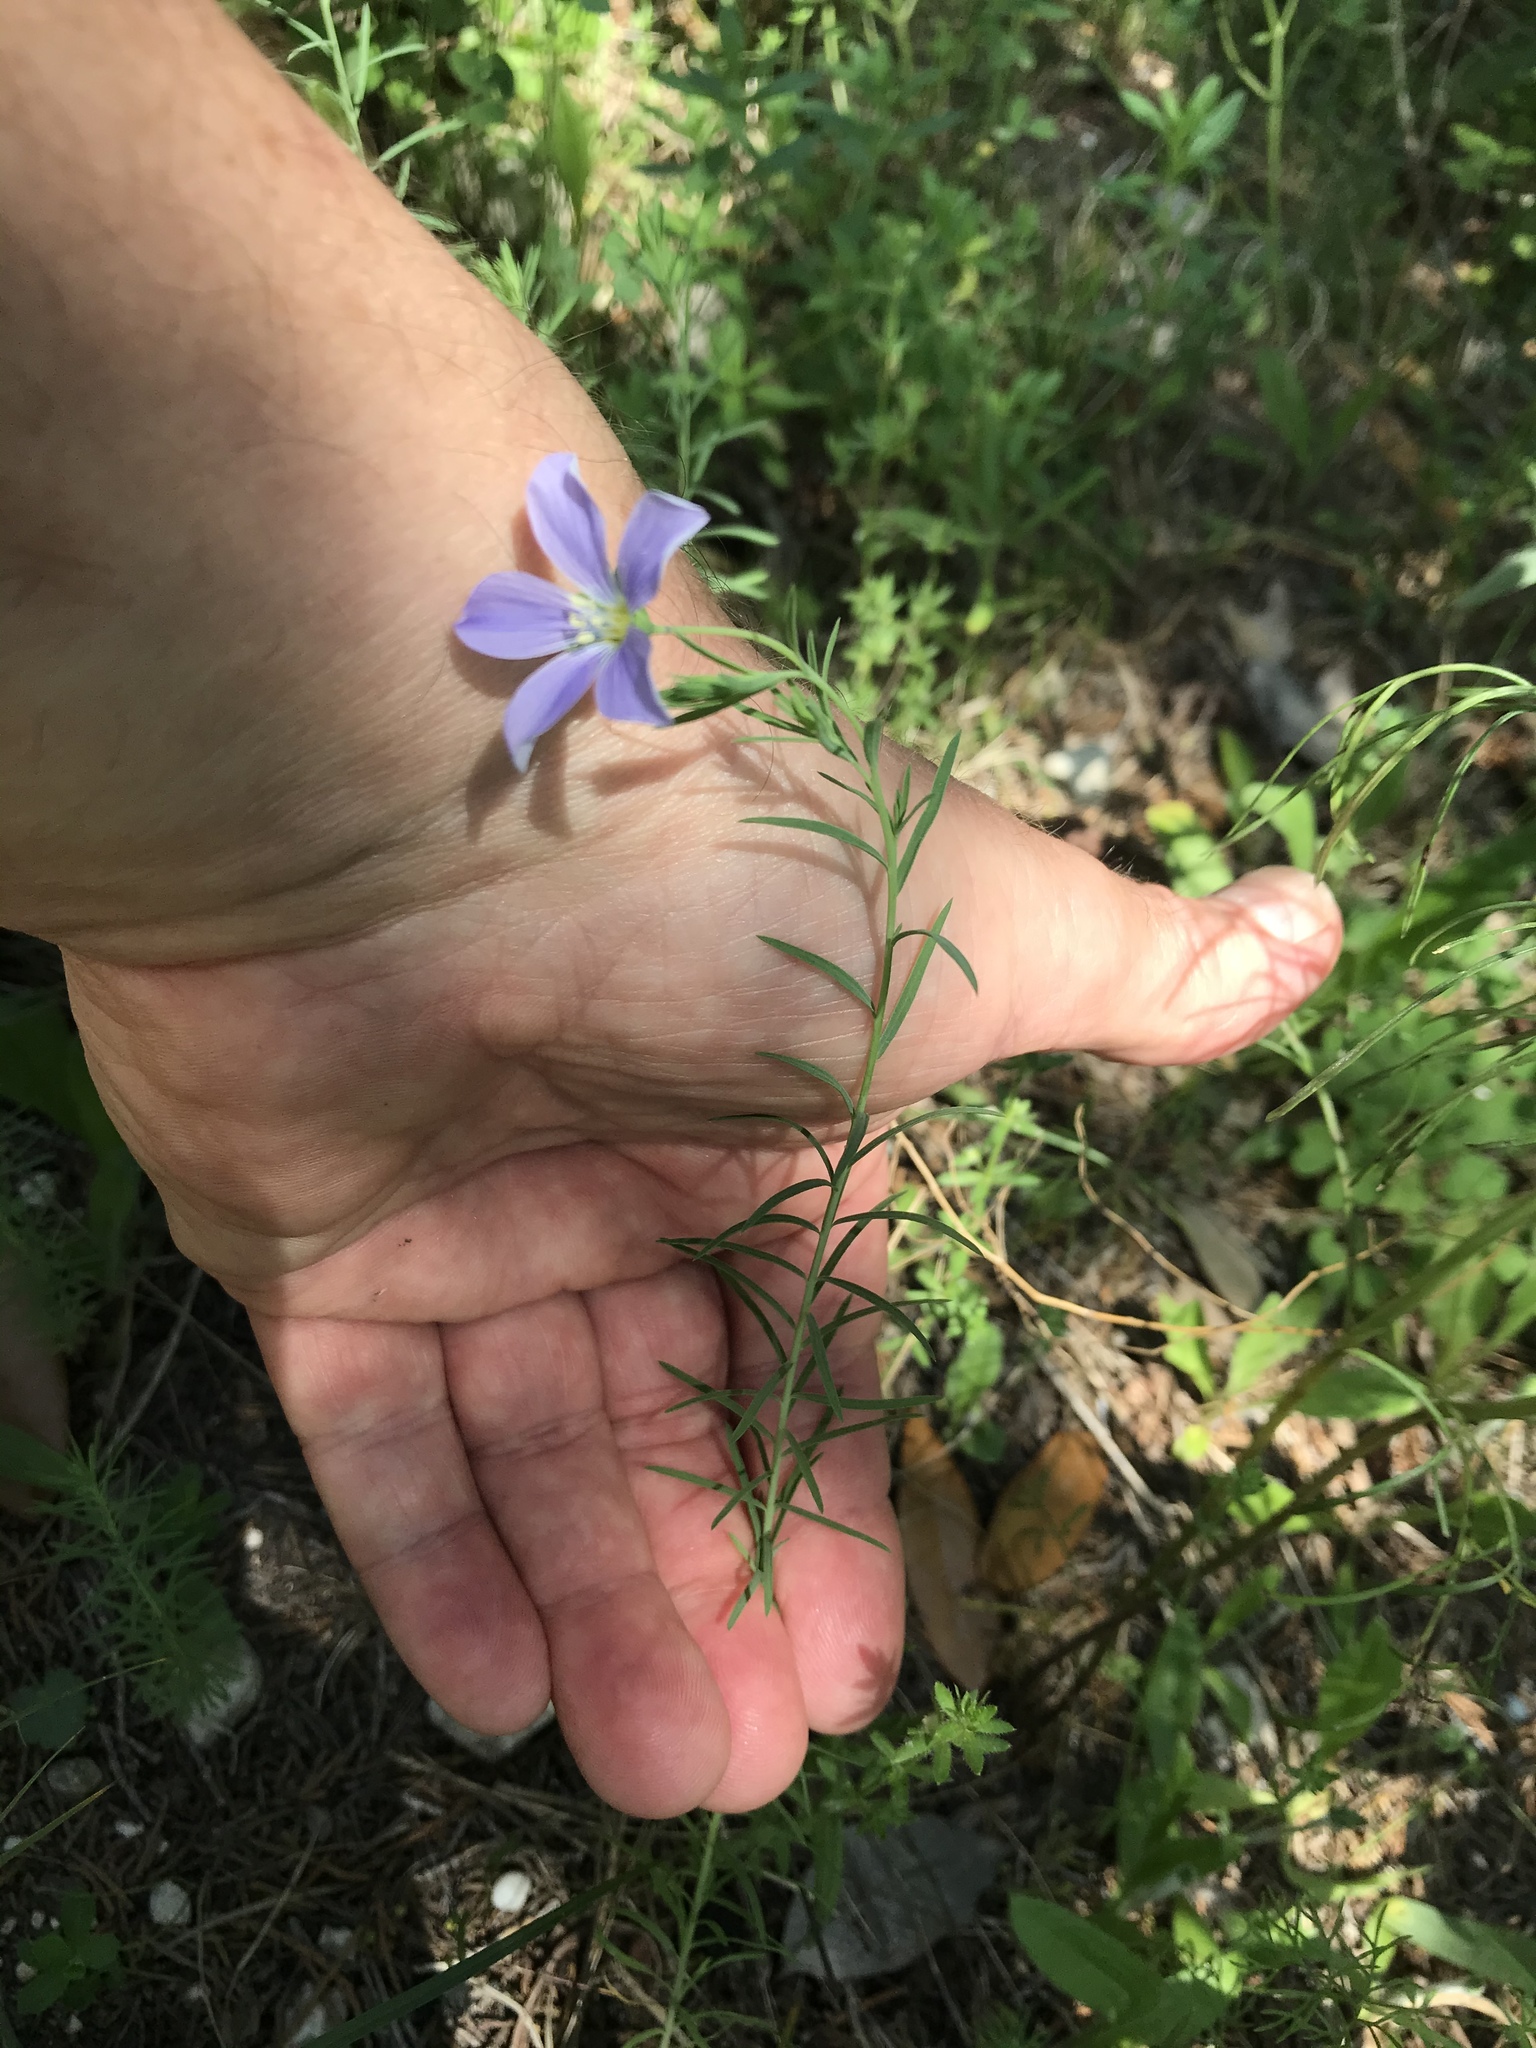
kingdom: Plantae
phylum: Tracheophyta
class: Magnoliopsida
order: Malpighiales
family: Linaceae
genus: Linum
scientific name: Linum pratense
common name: Norton's flax
